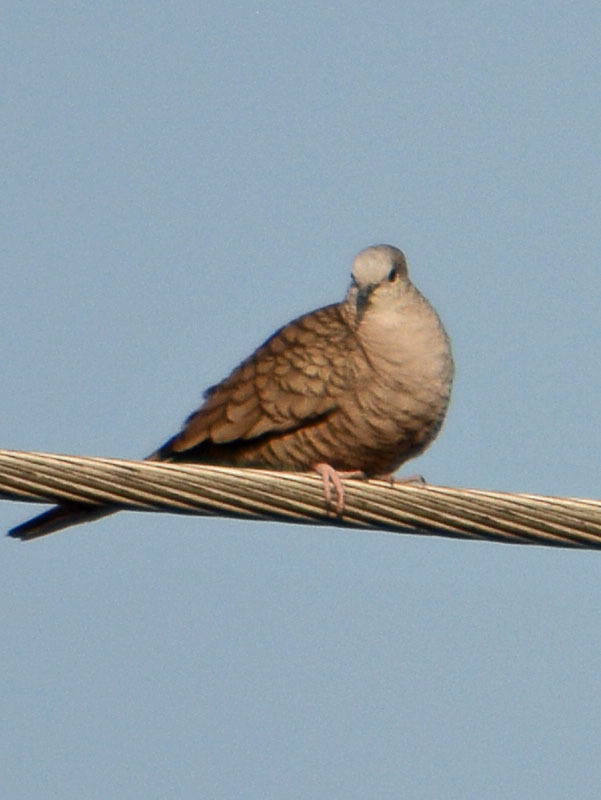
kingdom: Animalia
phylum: Chordata
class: Aves
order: Columbiformes
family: Columbidae
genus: Columbina
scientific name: Columbina inca
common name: Inca dove
